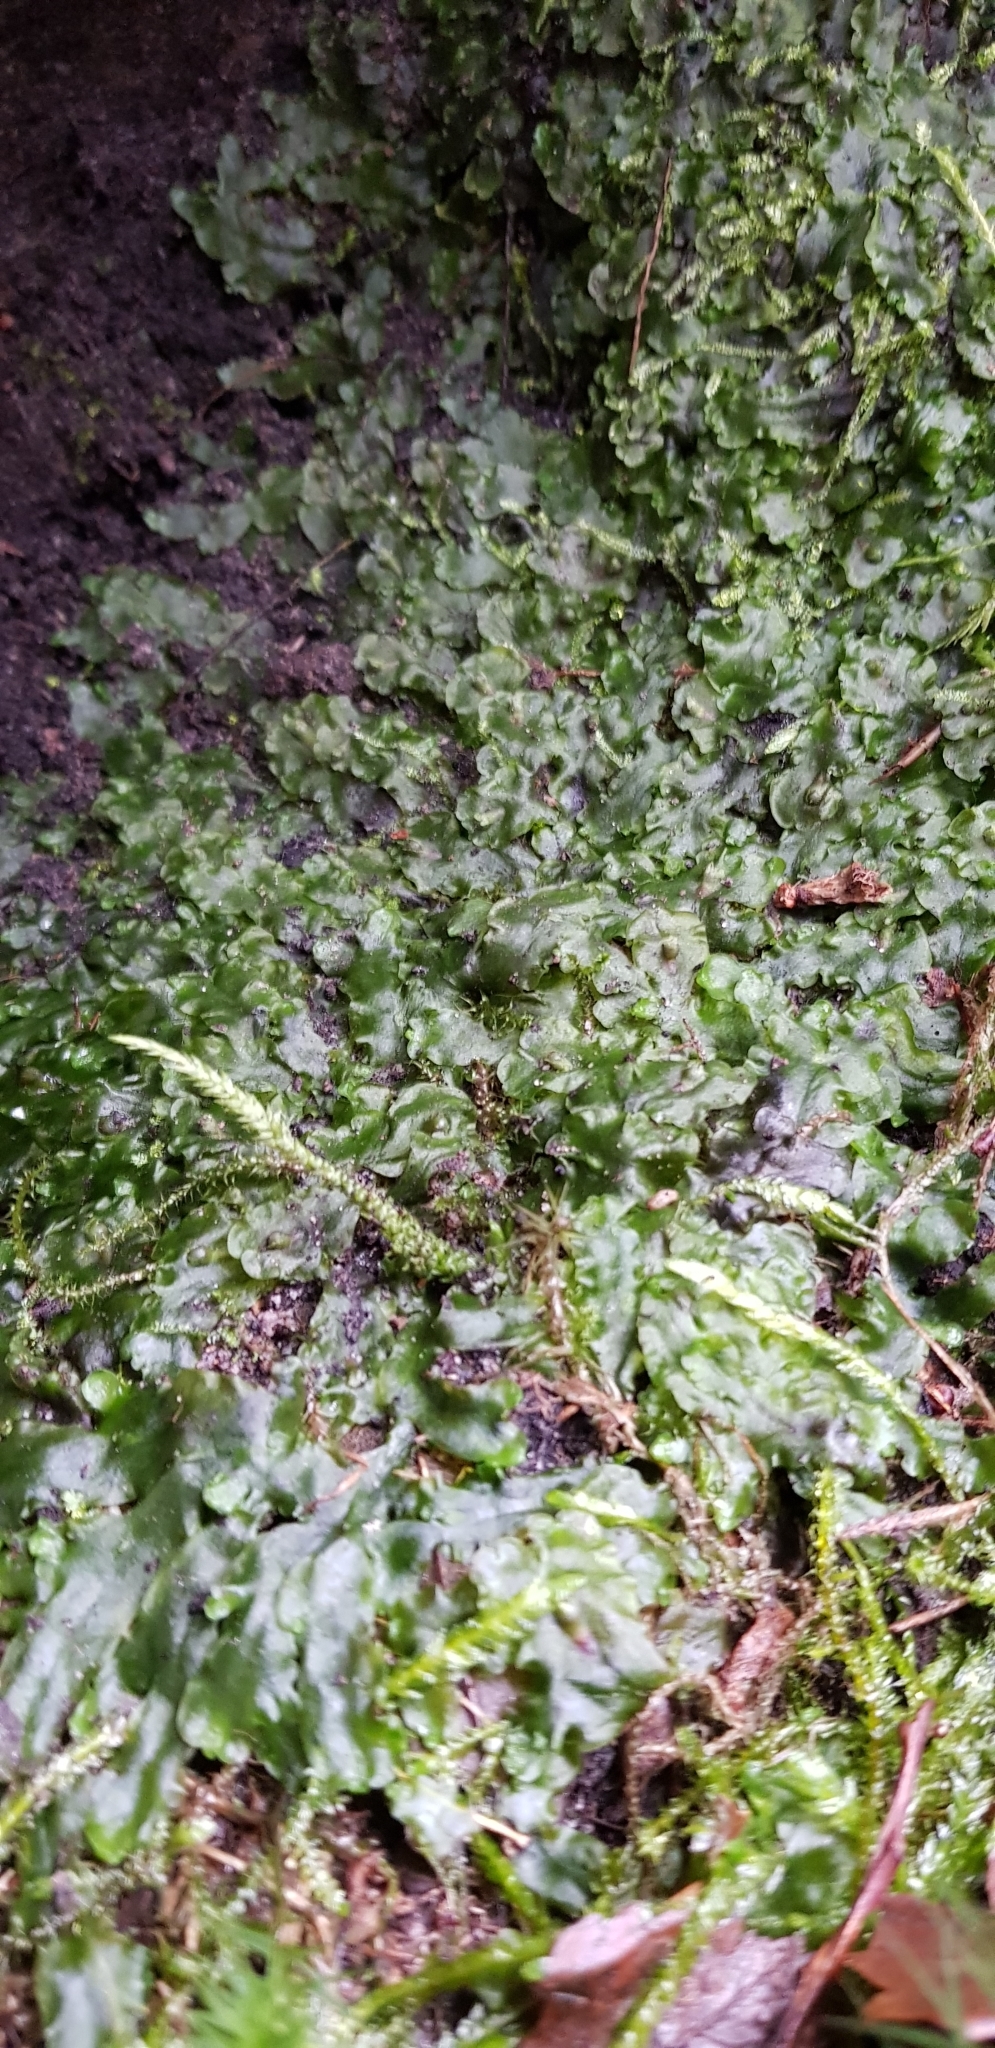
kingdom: Plantae
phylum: Marchantiophyta
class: Jungermanniopsida
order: Pelliales
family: Pelliaceae
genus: Pellia
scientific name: Pellia epiphylla
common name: Common pellia
